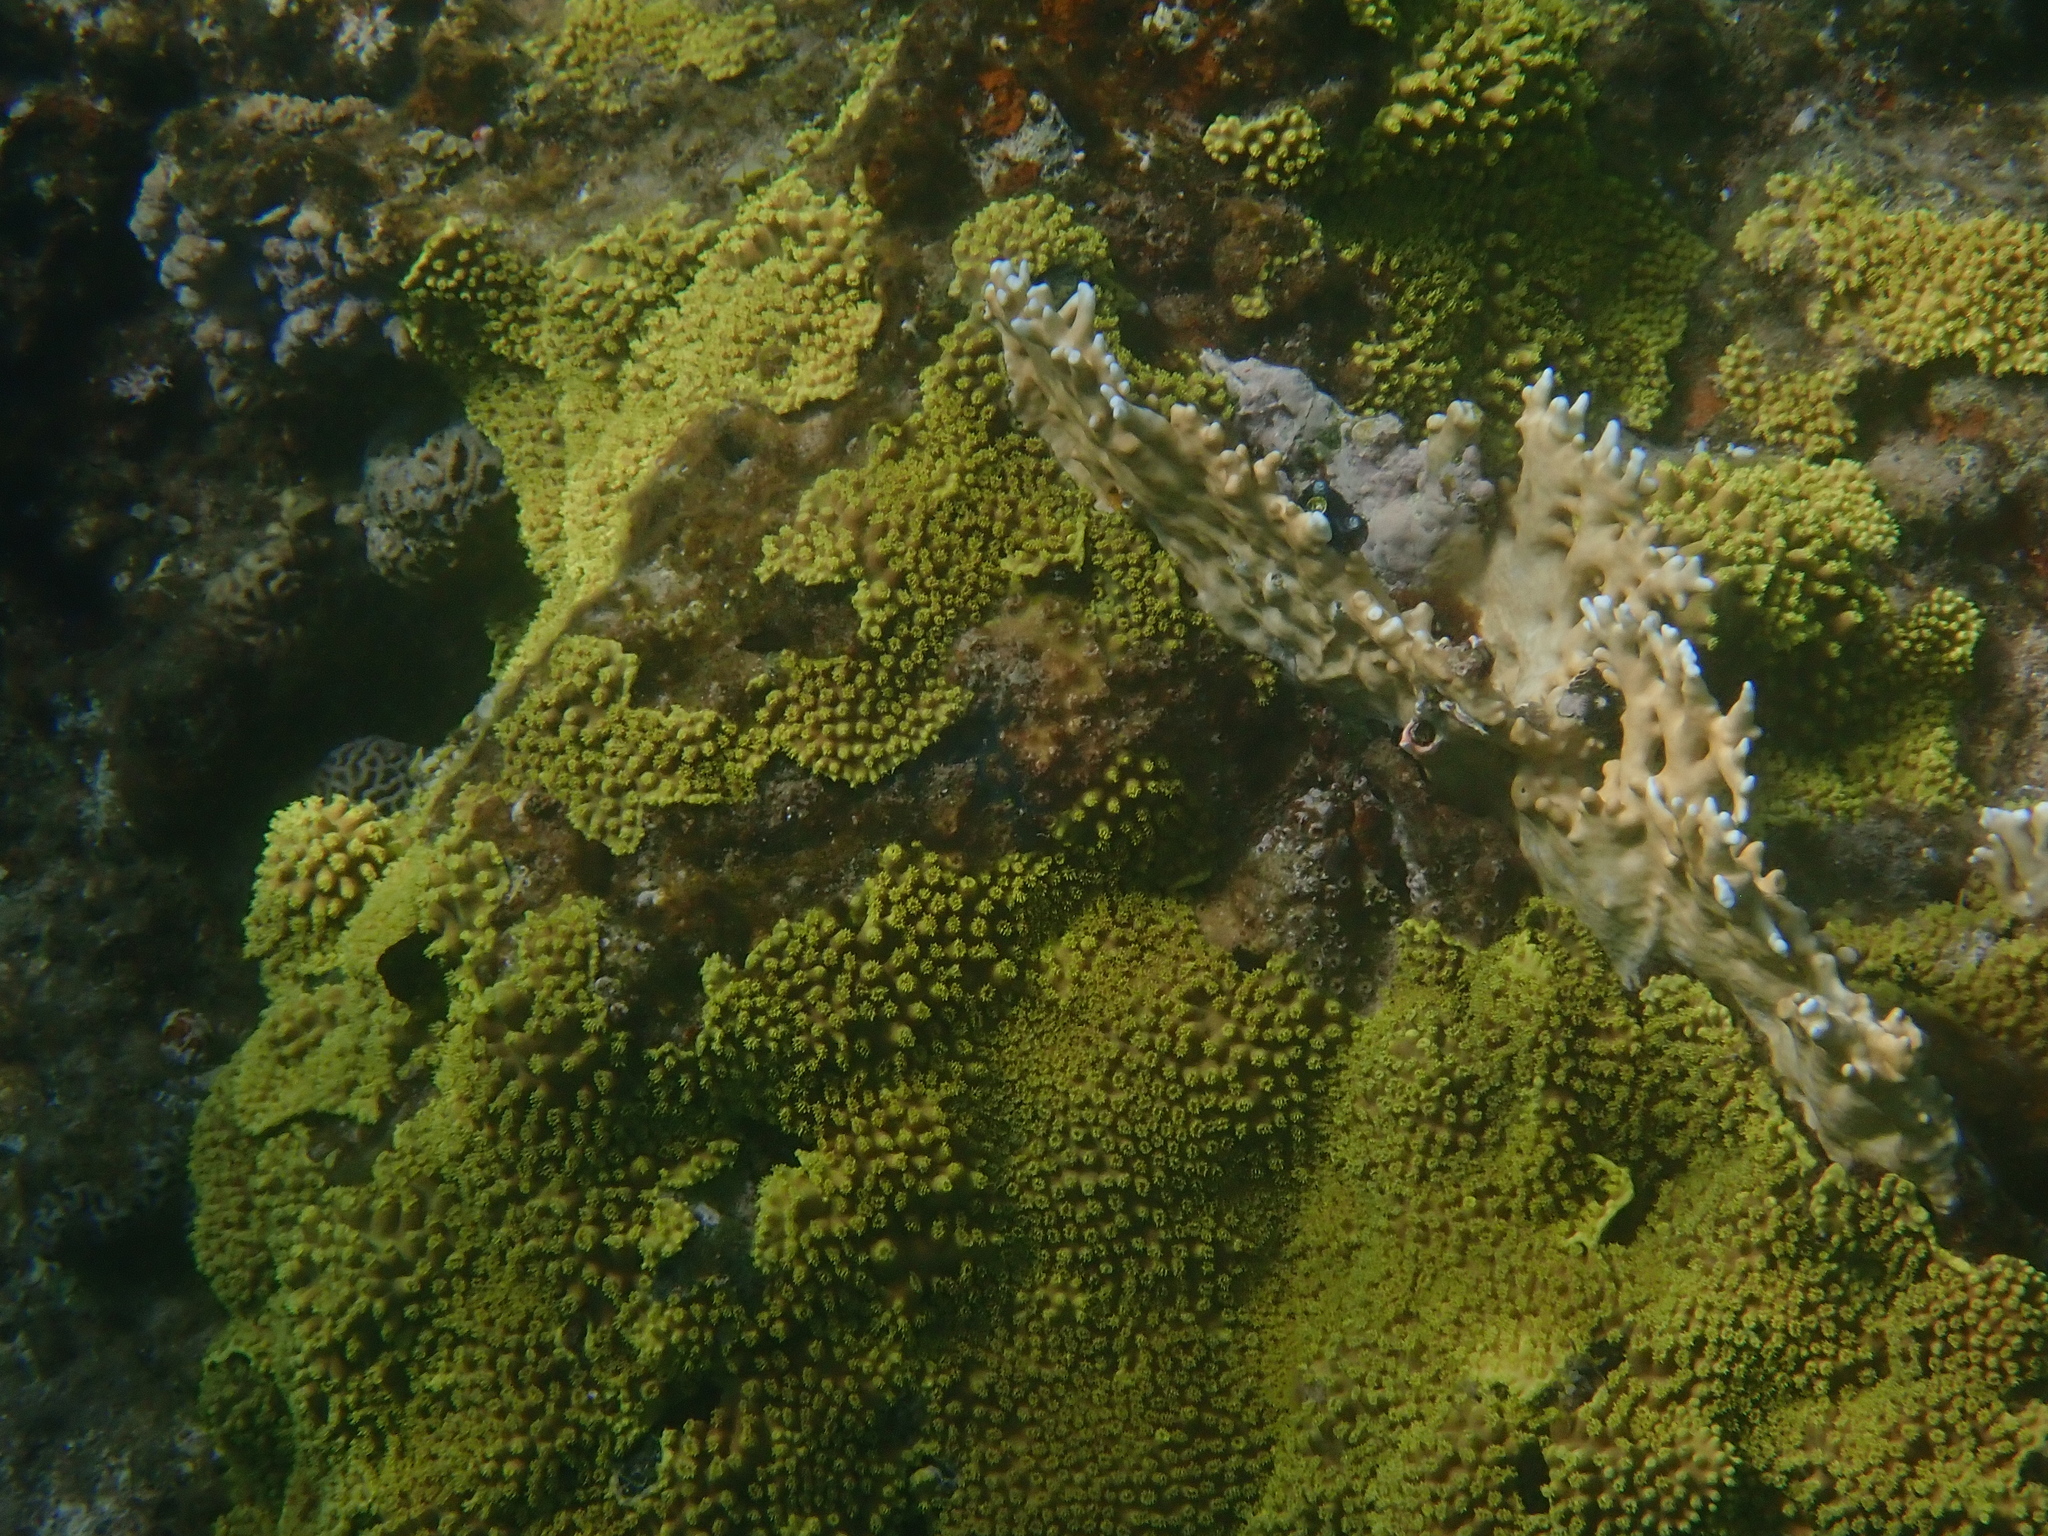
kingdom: Animalia
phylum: Cnidaria
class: Anthozoa
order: Scleractinia
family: Dendrophylliidae
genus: Turbinaria
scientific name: Turbinaria reniformis
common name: Disc coral
